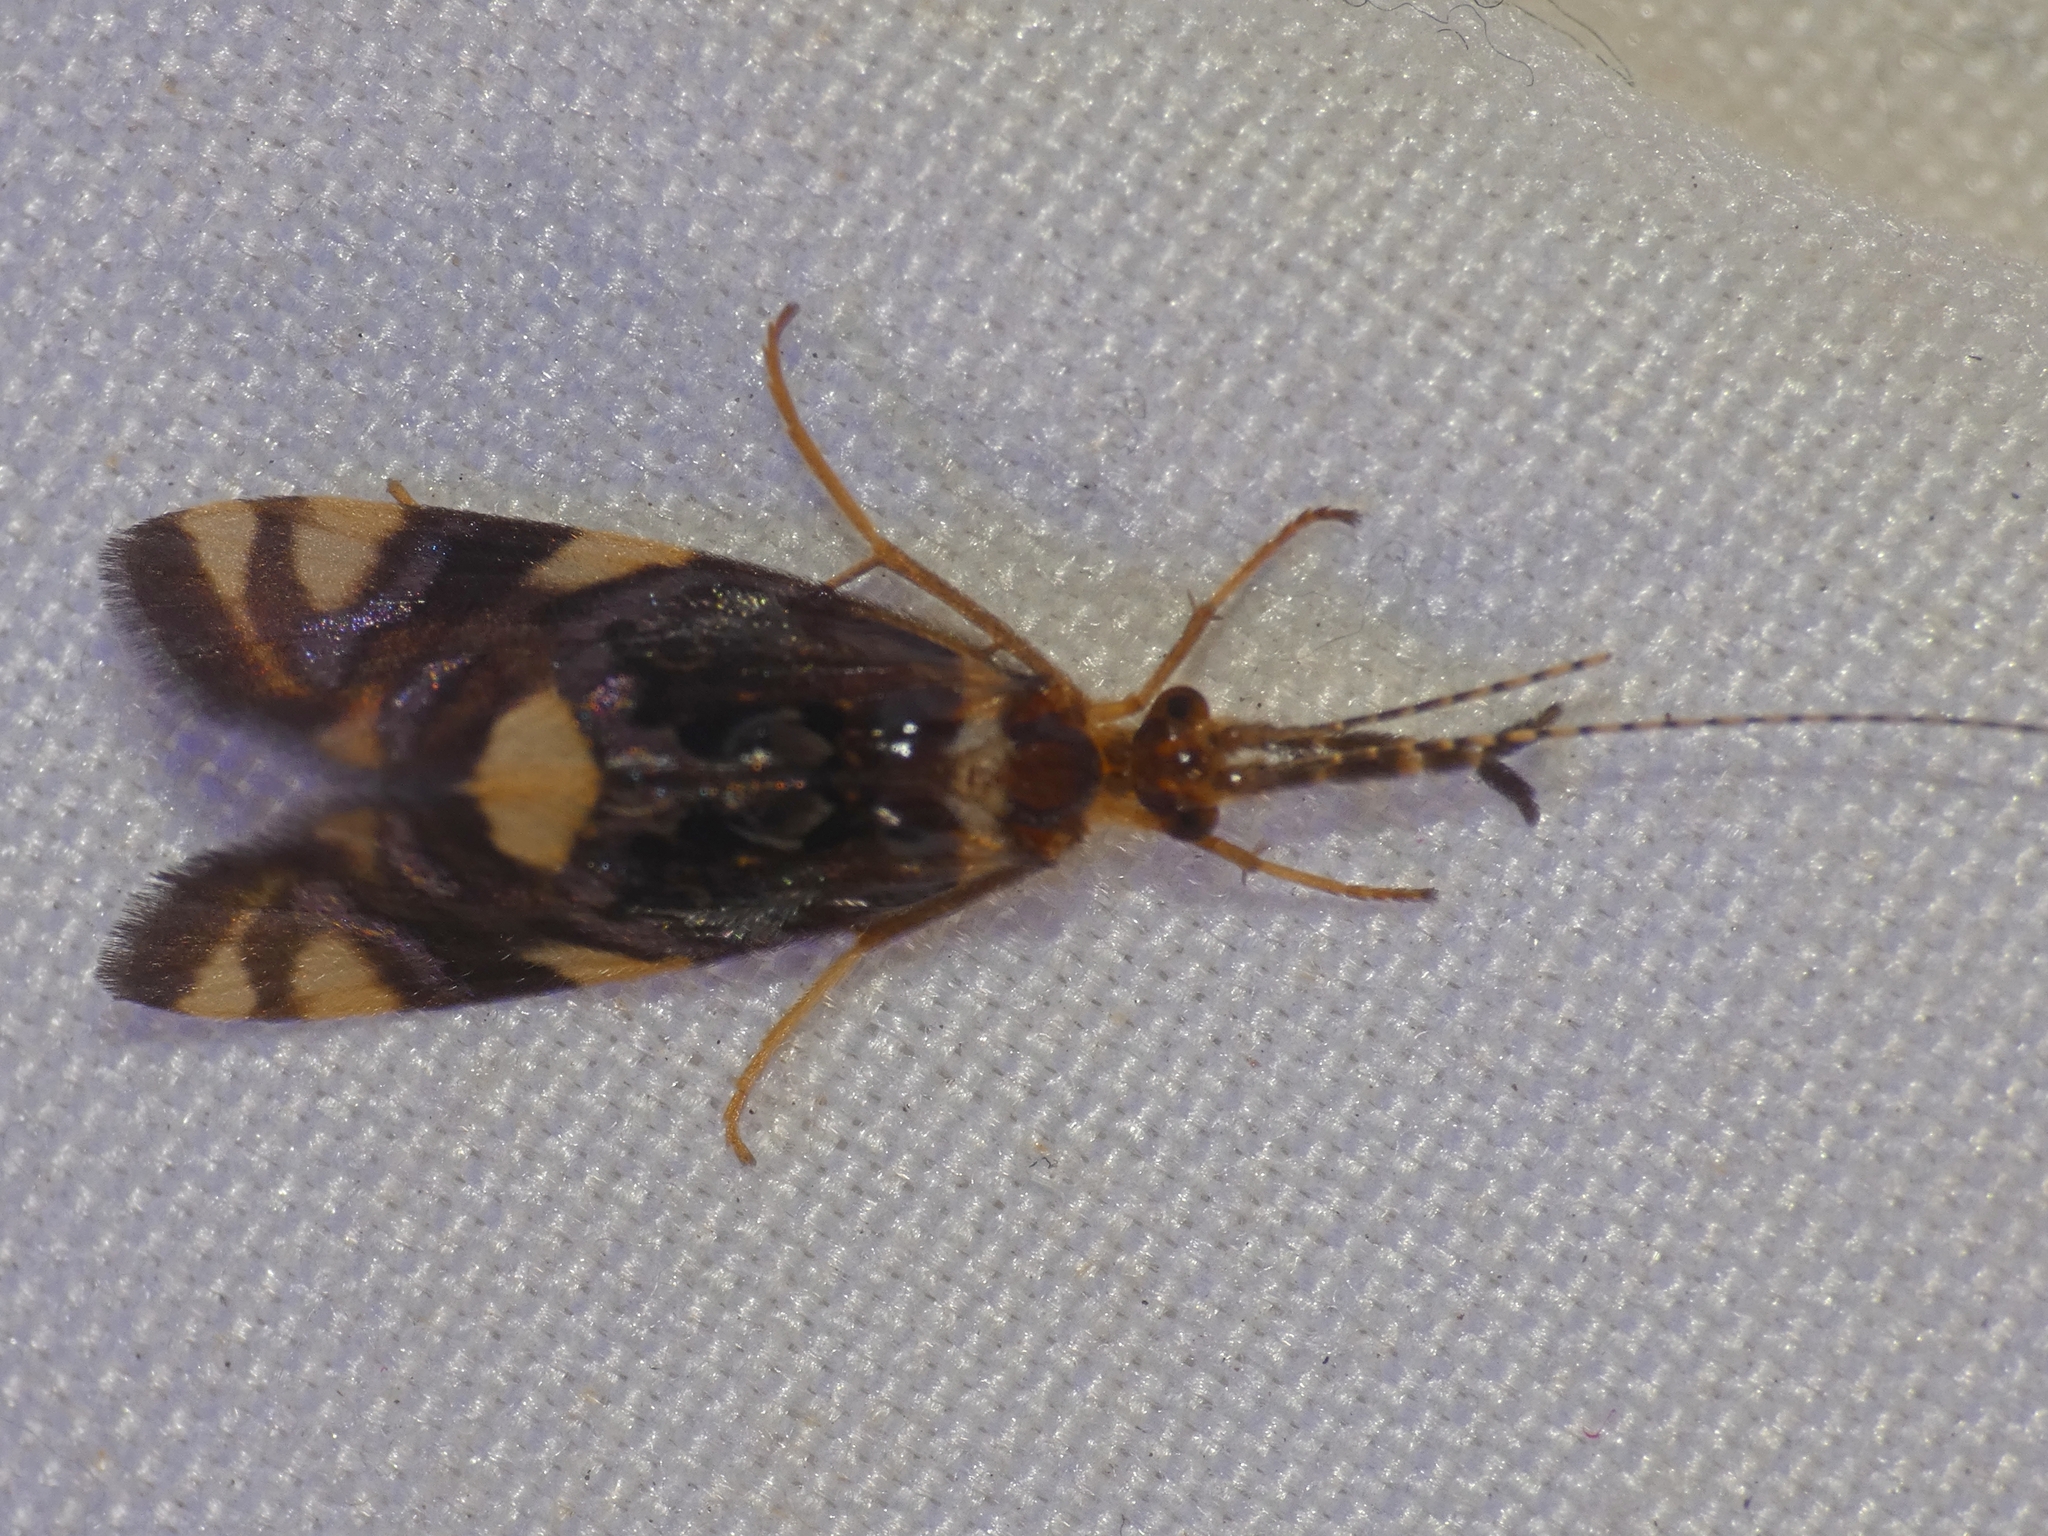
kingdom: Animalia
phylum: Arthropoda
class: Insecta
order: Trichoptera
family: Calamoceratidae
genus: Anisocentropus
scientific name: Anisocentropus banghaasi
